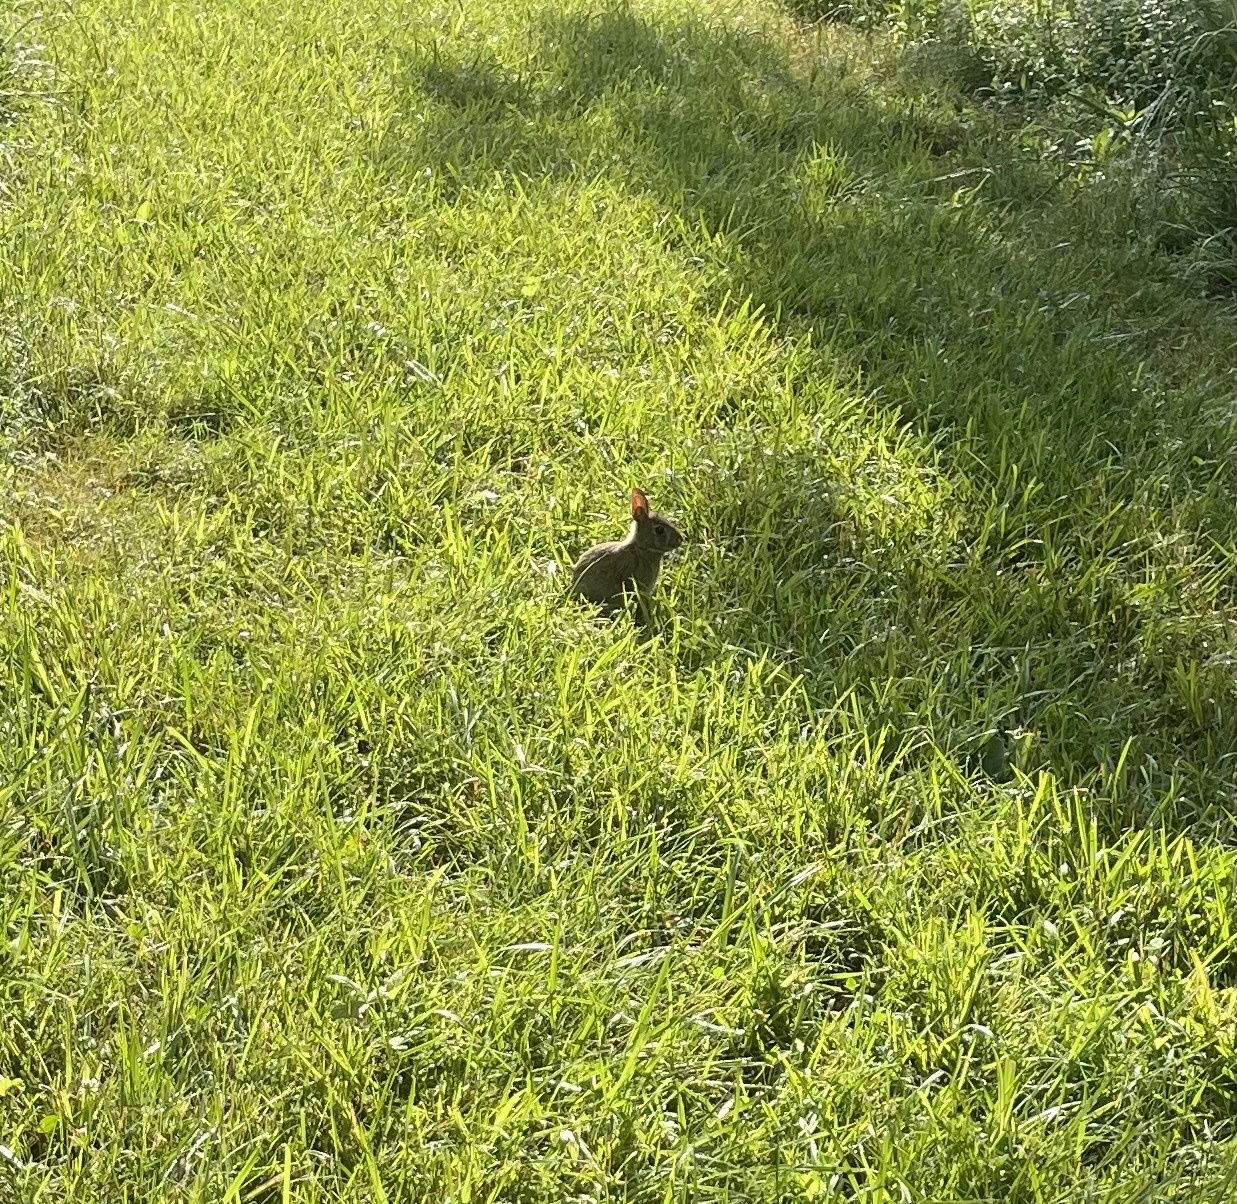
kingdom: Animalia
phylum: Chordata
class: Mammalia
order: Lagomorpha
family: Leporidae
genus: Sylvilagus
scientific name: Sylvilagus floridanus
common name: Eastern cottontail
